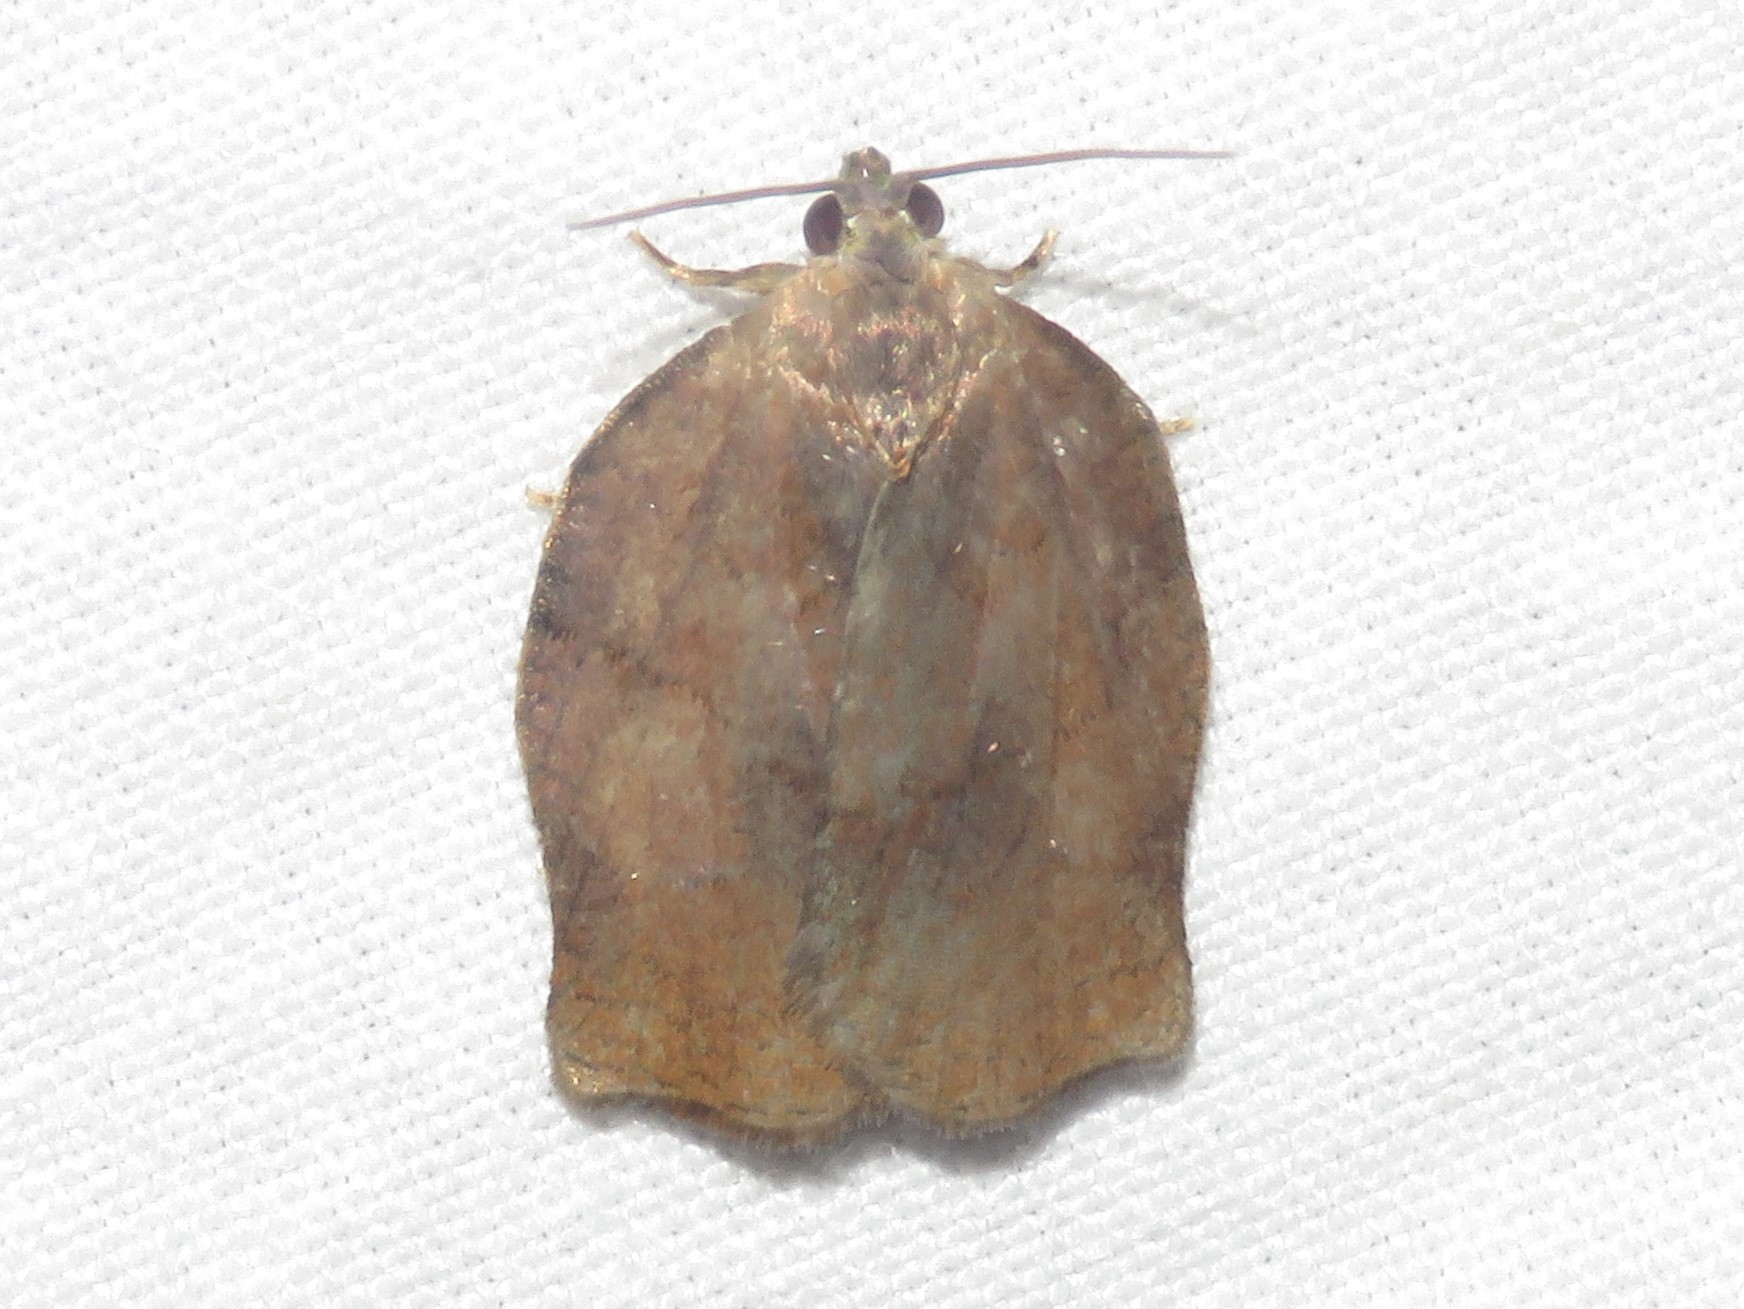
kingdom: Animalia
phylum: Arthropoda
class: Insecta
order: Lepidoptera
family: Tortricidae
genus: Archips
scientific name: Archips purpurana
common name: Omnivorous leafroller
